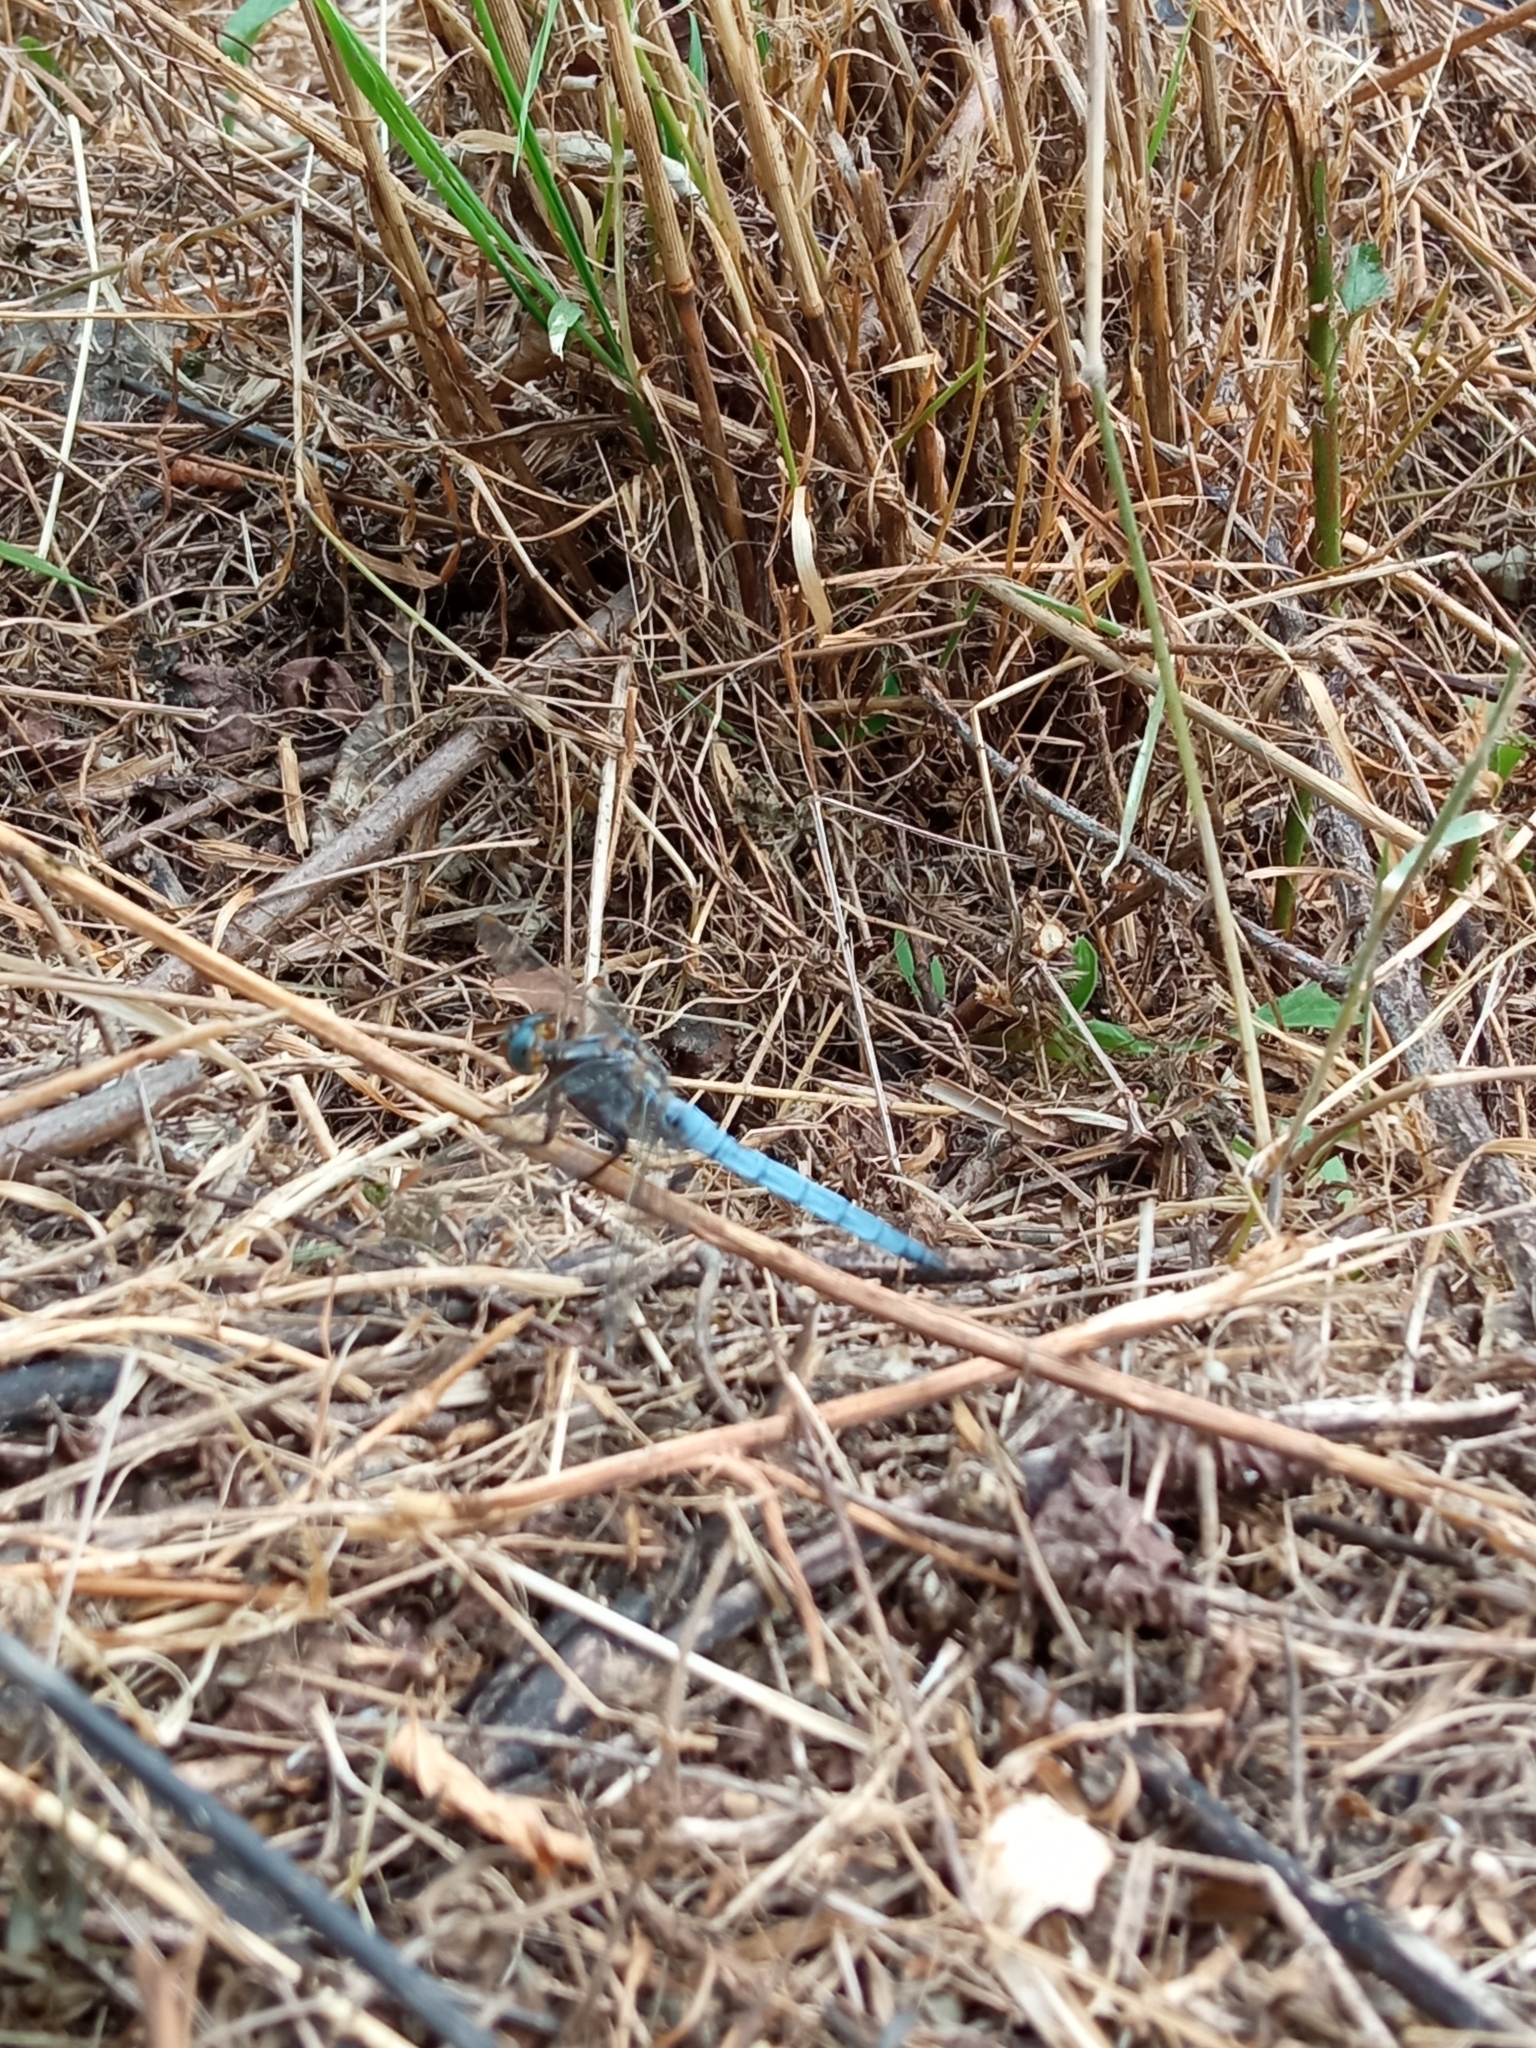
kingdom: Animalia
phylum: Arthropoda
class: Insecta
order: Odonata
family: Libellulidae
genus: Orthetrum
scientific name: Orthetrum coerulescens
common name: Keeled skimmer
